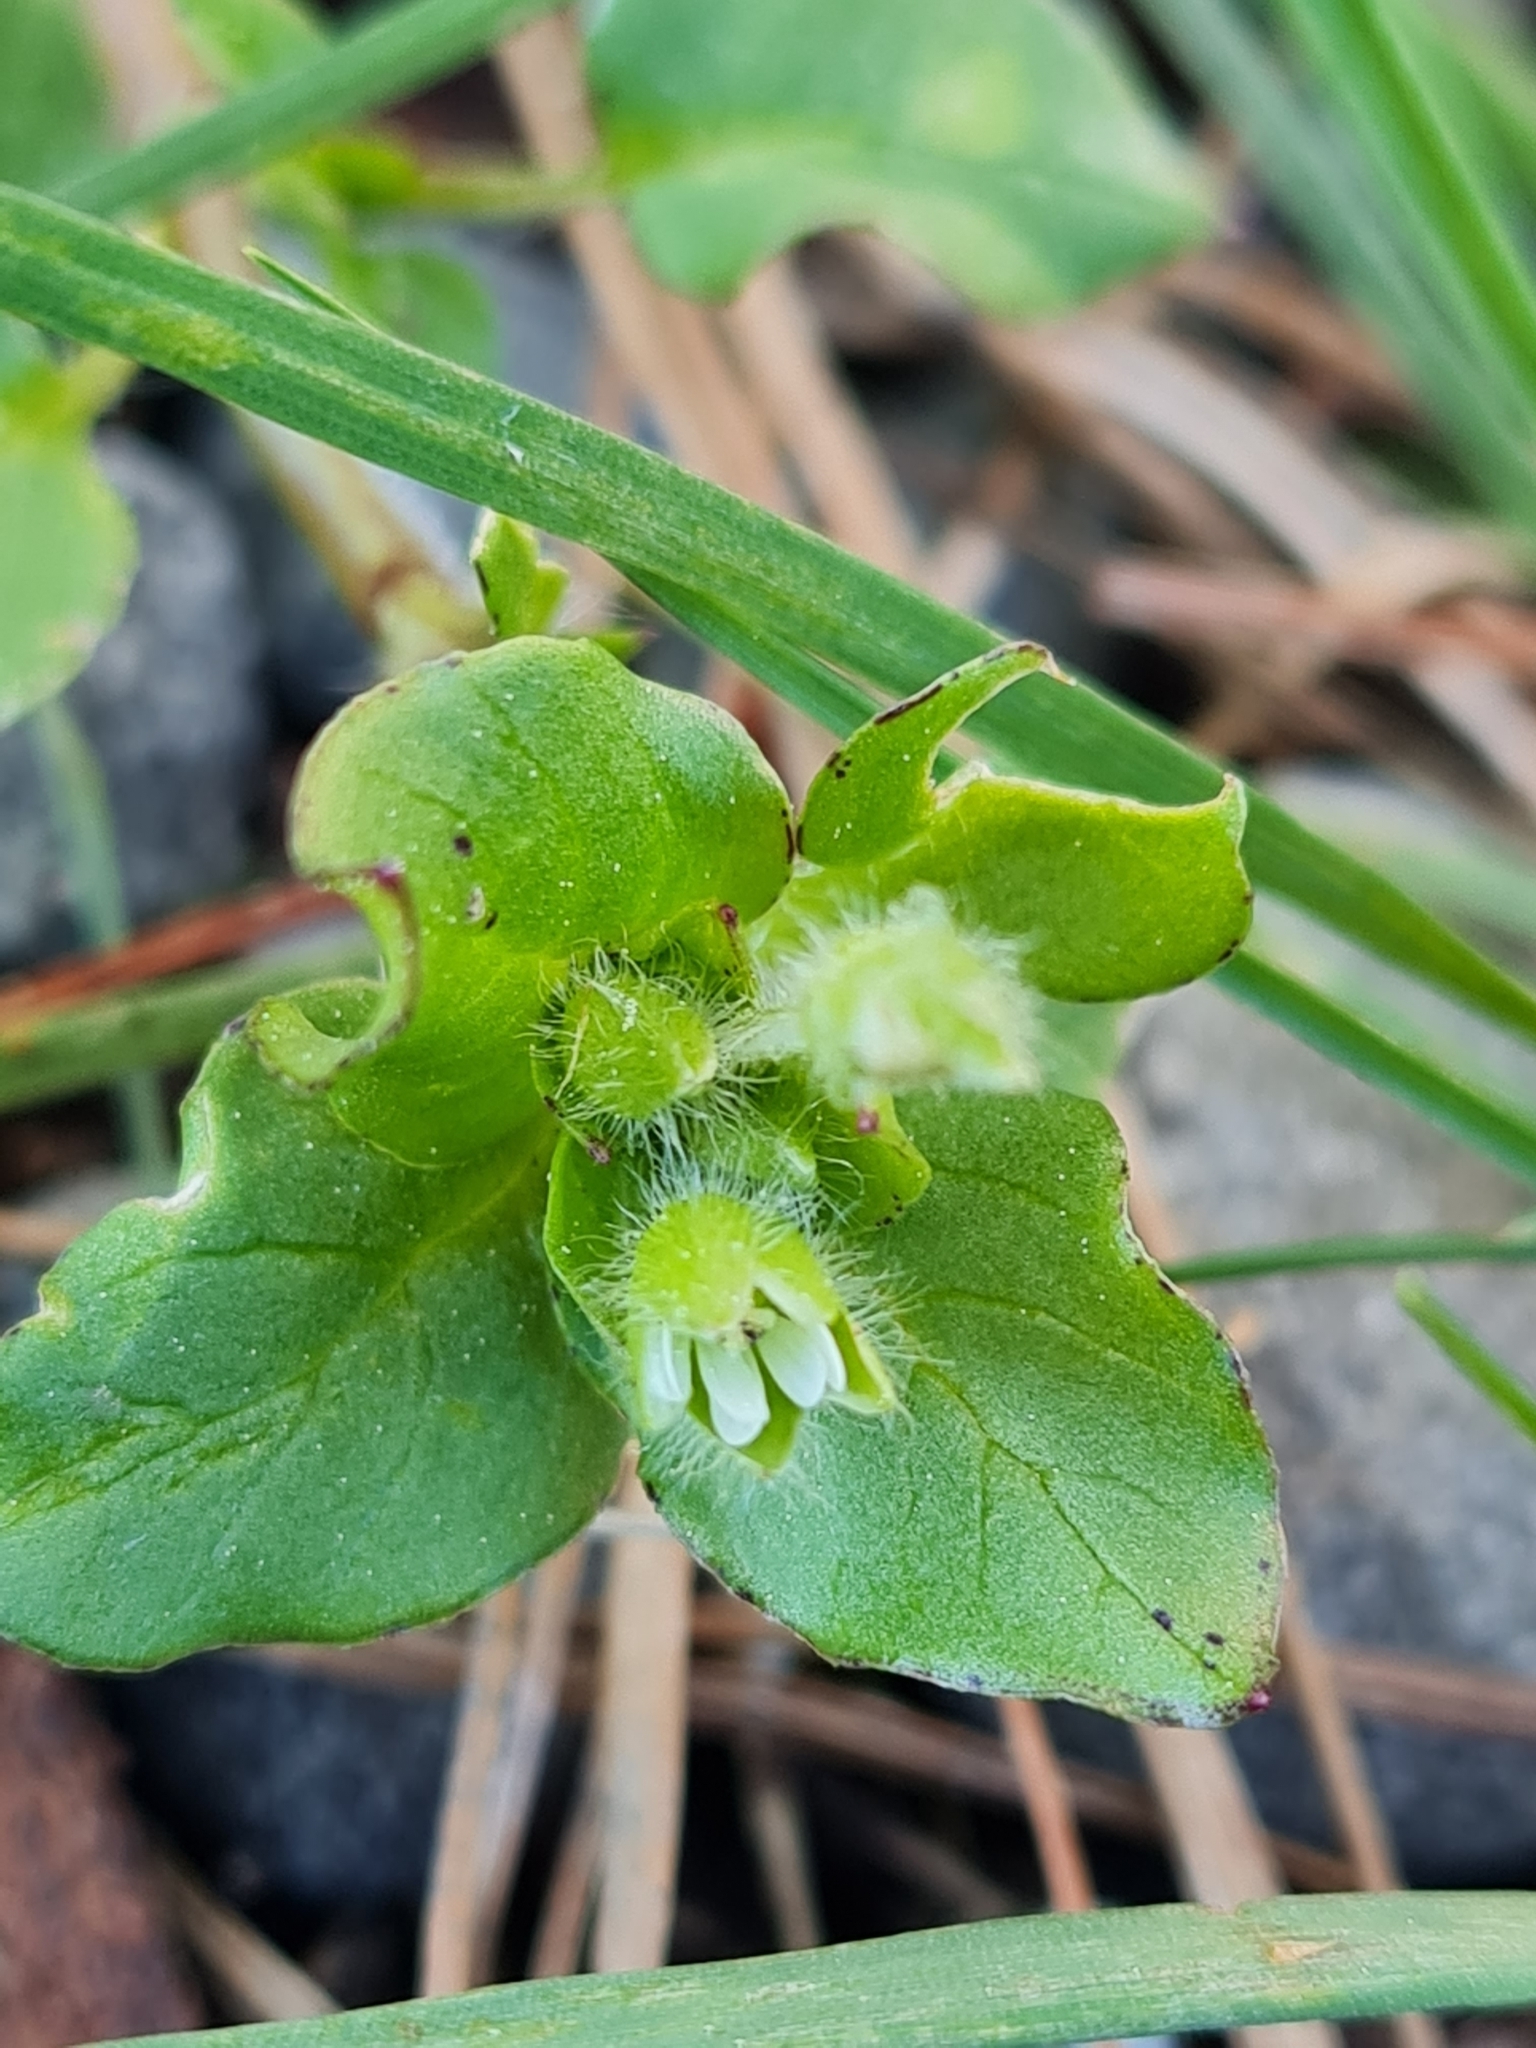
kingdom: Plantae
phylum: Tracheophyta
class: Magnoliopsida
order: Caryophyllales
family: Caryophyllaceae
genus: Stellaria
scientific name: Stellaria media
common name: Common chickweed
